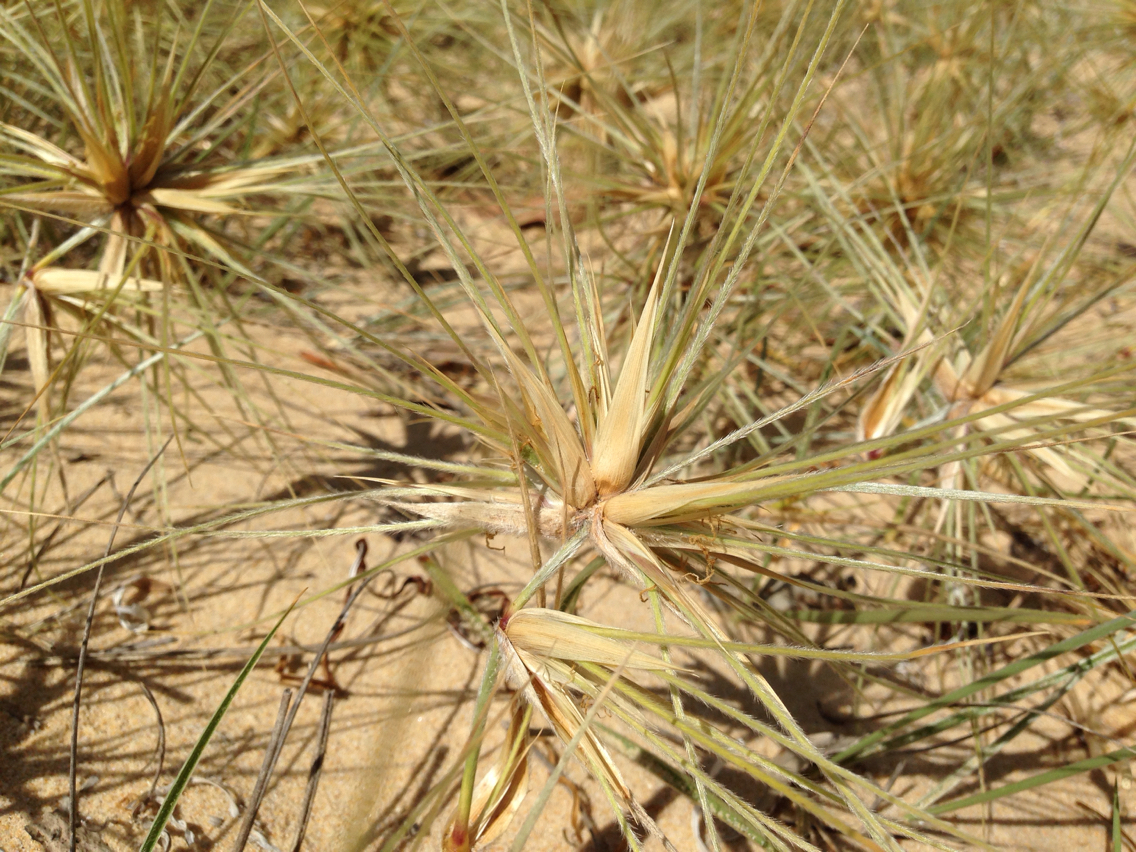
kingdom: Plantae
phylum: Tracheophyta
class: Liliopsida
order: Poales
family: Poaceae
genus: Spinifex
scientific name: Spinifex hirsutus
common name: Hairy spinifex
